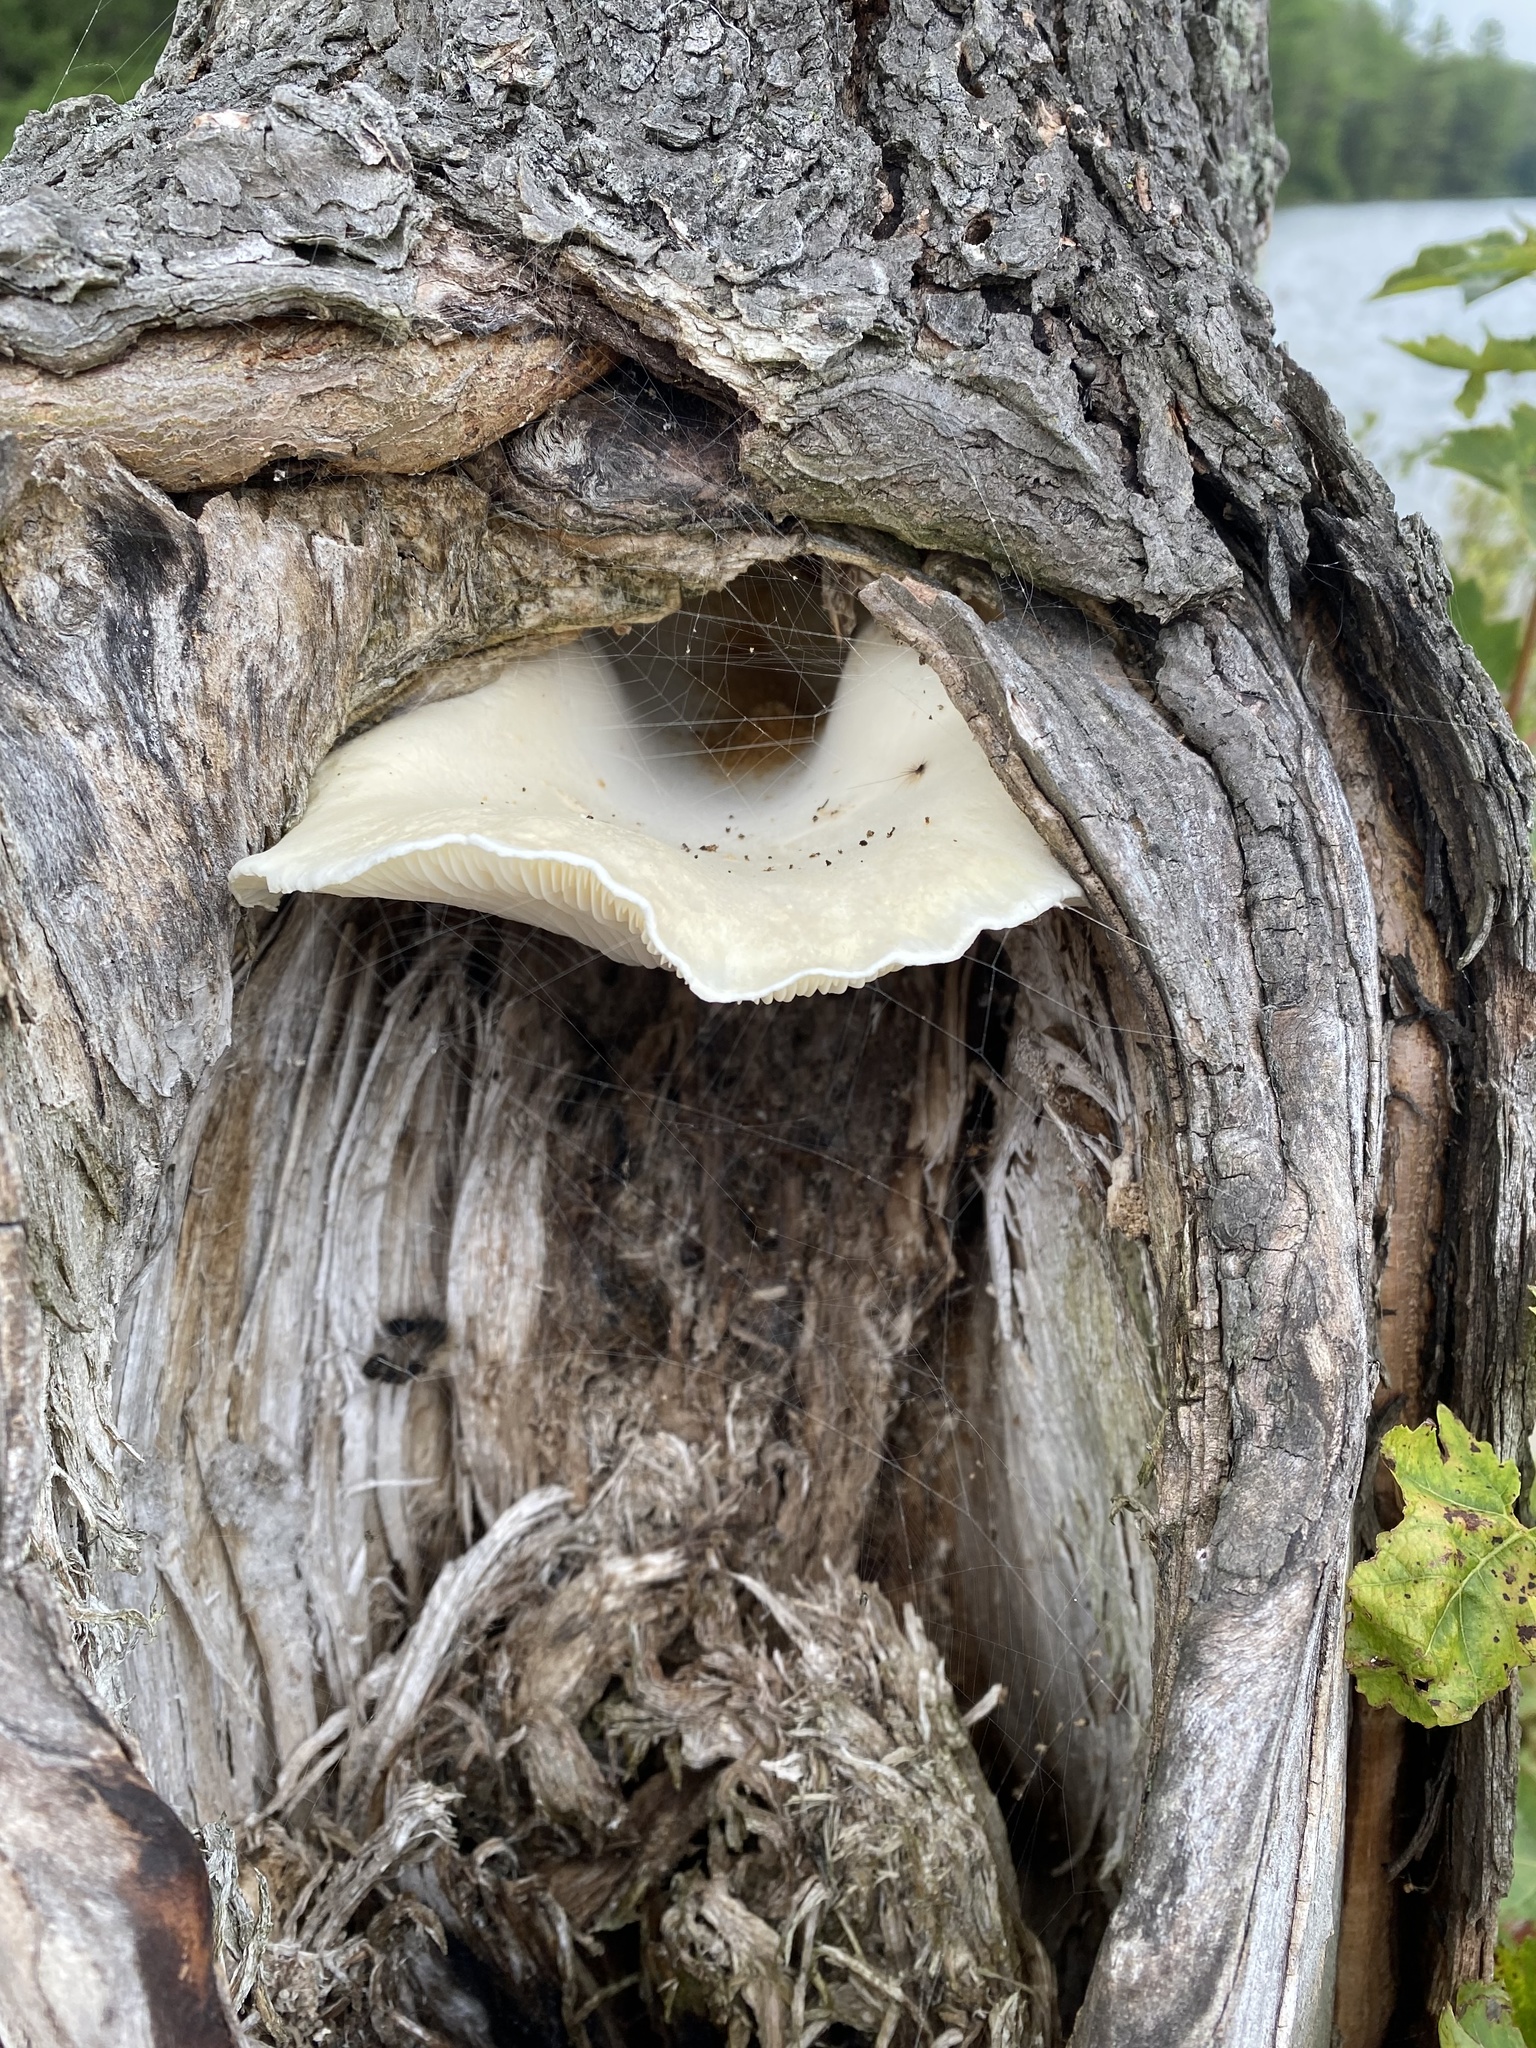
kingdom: Fungi
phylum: Basidiomycota
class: Agaricomycetes
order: Agaricales
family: Pleurotaceae
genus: Pleurotus
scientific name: Pleurotus pulmonarius
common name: Pale oyster
